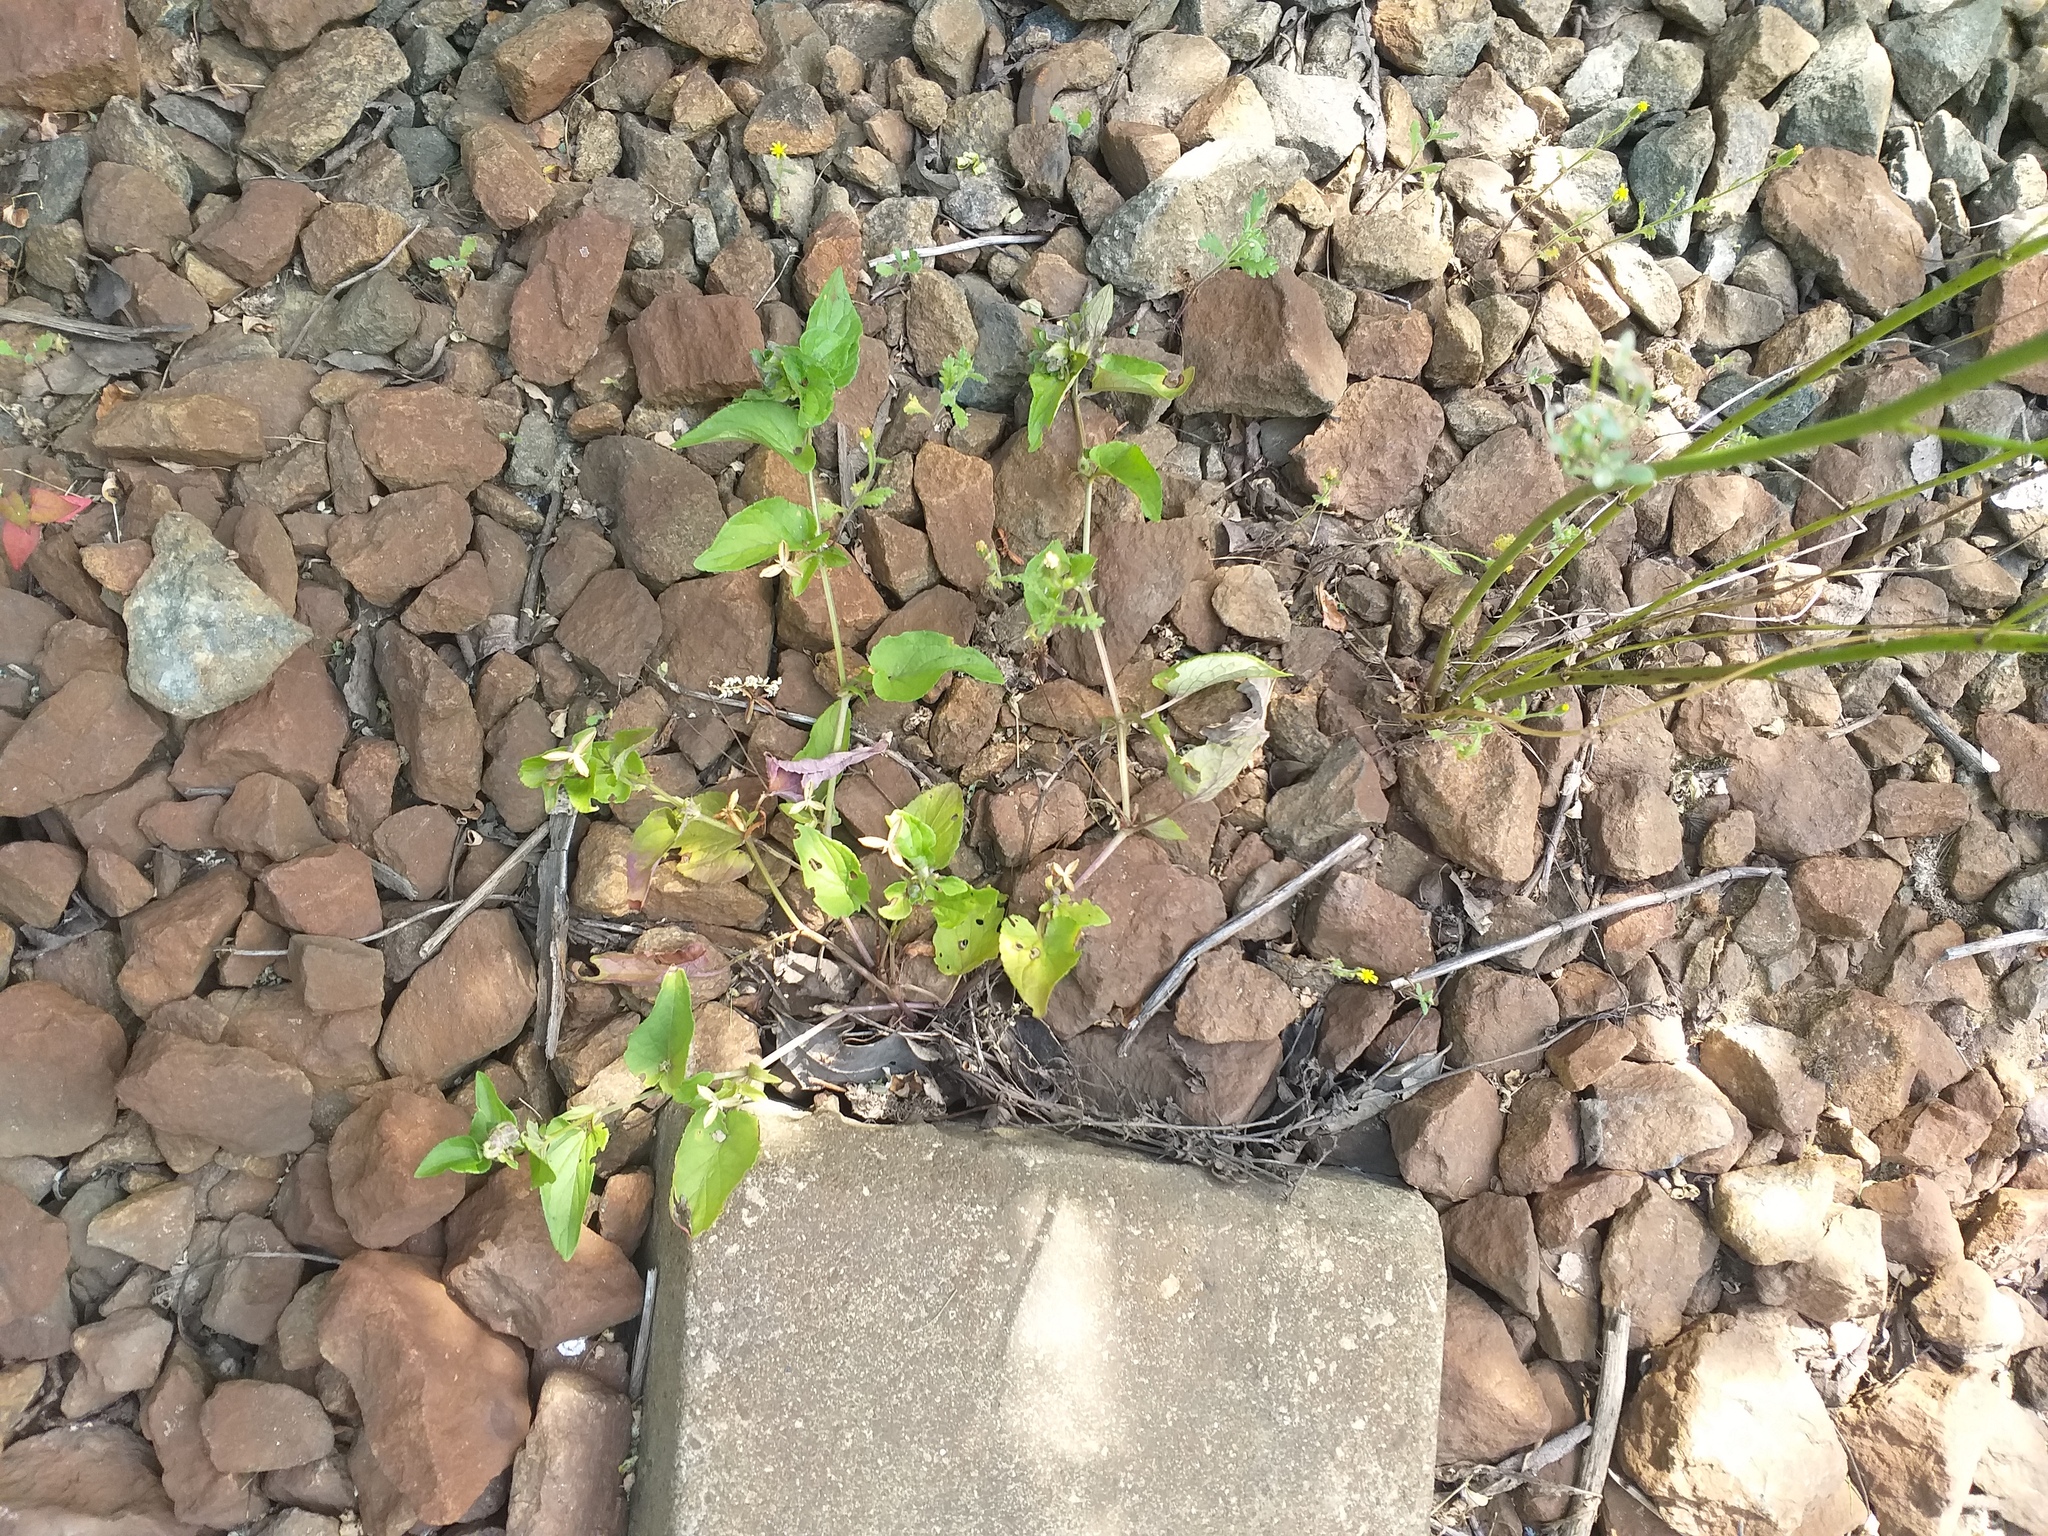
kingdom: Plantae
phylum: Tracheophyta
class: Magnoliopsida
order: Malpighiales
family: Violaceae
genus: Viola
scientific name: Viola canina
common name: Heath dog-violet
